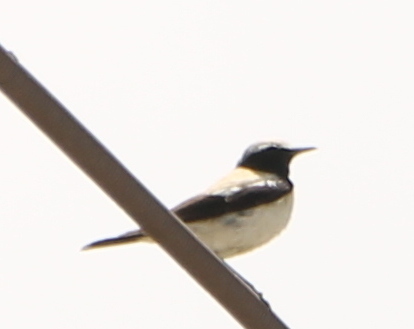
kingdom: Animalia
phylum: Chordata
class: Aves
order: Passeriformes
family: Muscicapidae
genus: Oenanthe
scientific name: Oenanthe deserti
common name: Desert wheatear
